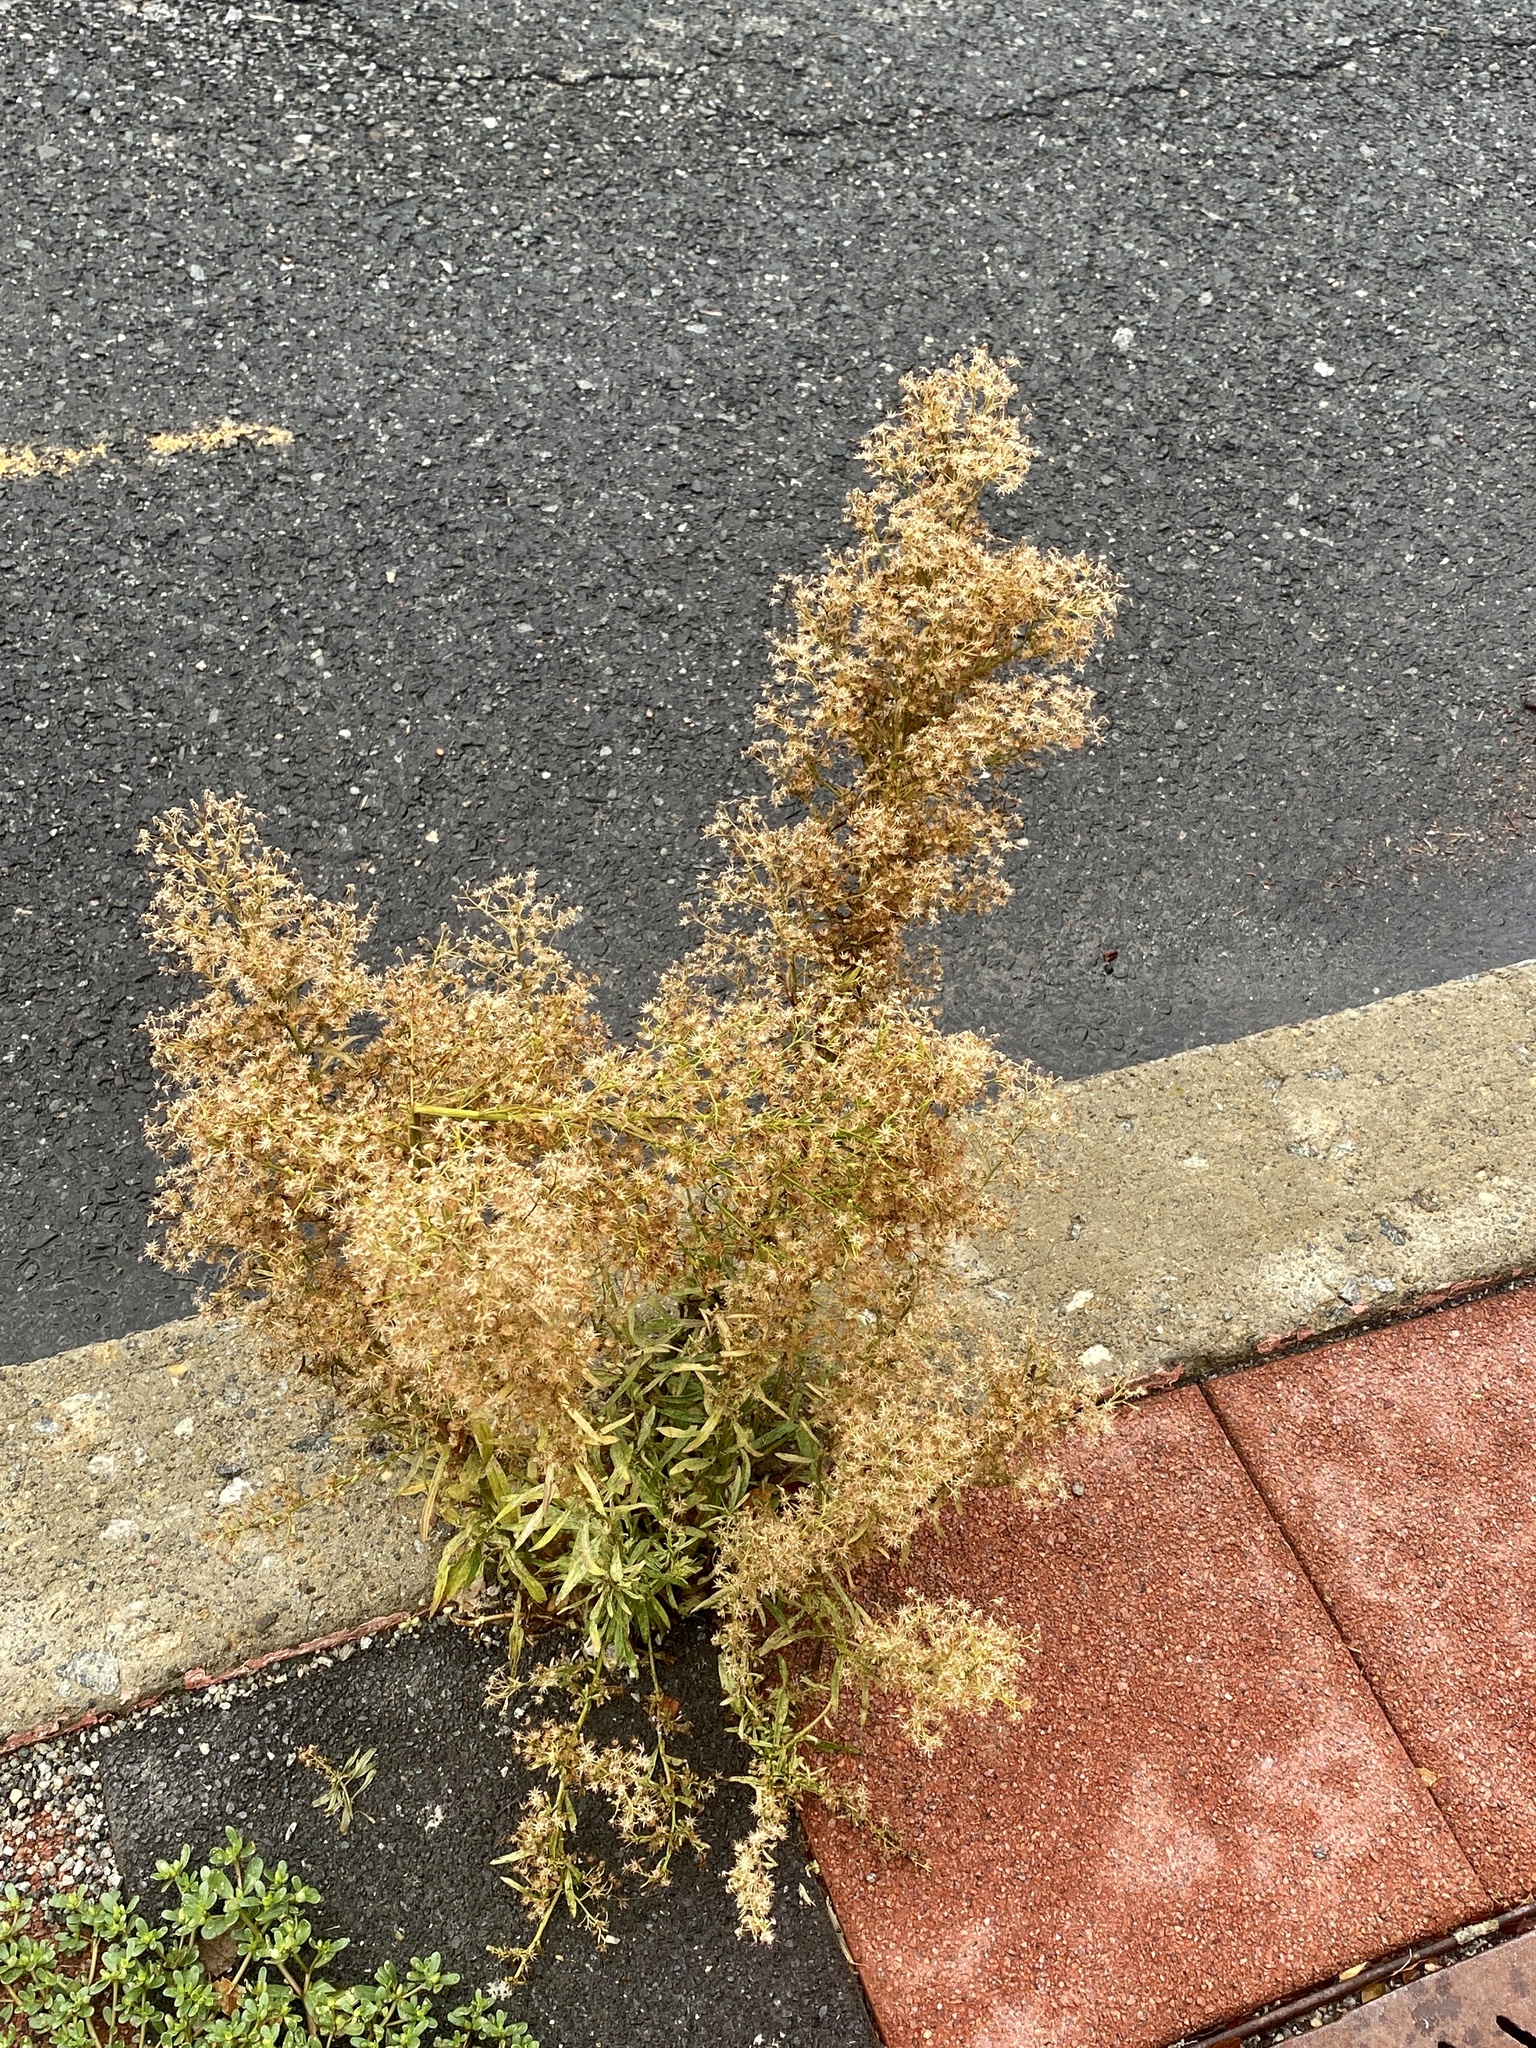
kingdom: Plantae
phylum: Tracheophyta
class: Magnoliopsida
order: Asterales
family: Asteraceae
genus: Erigeron
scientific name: Erigeron canadensis
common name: Canadian fleabane
